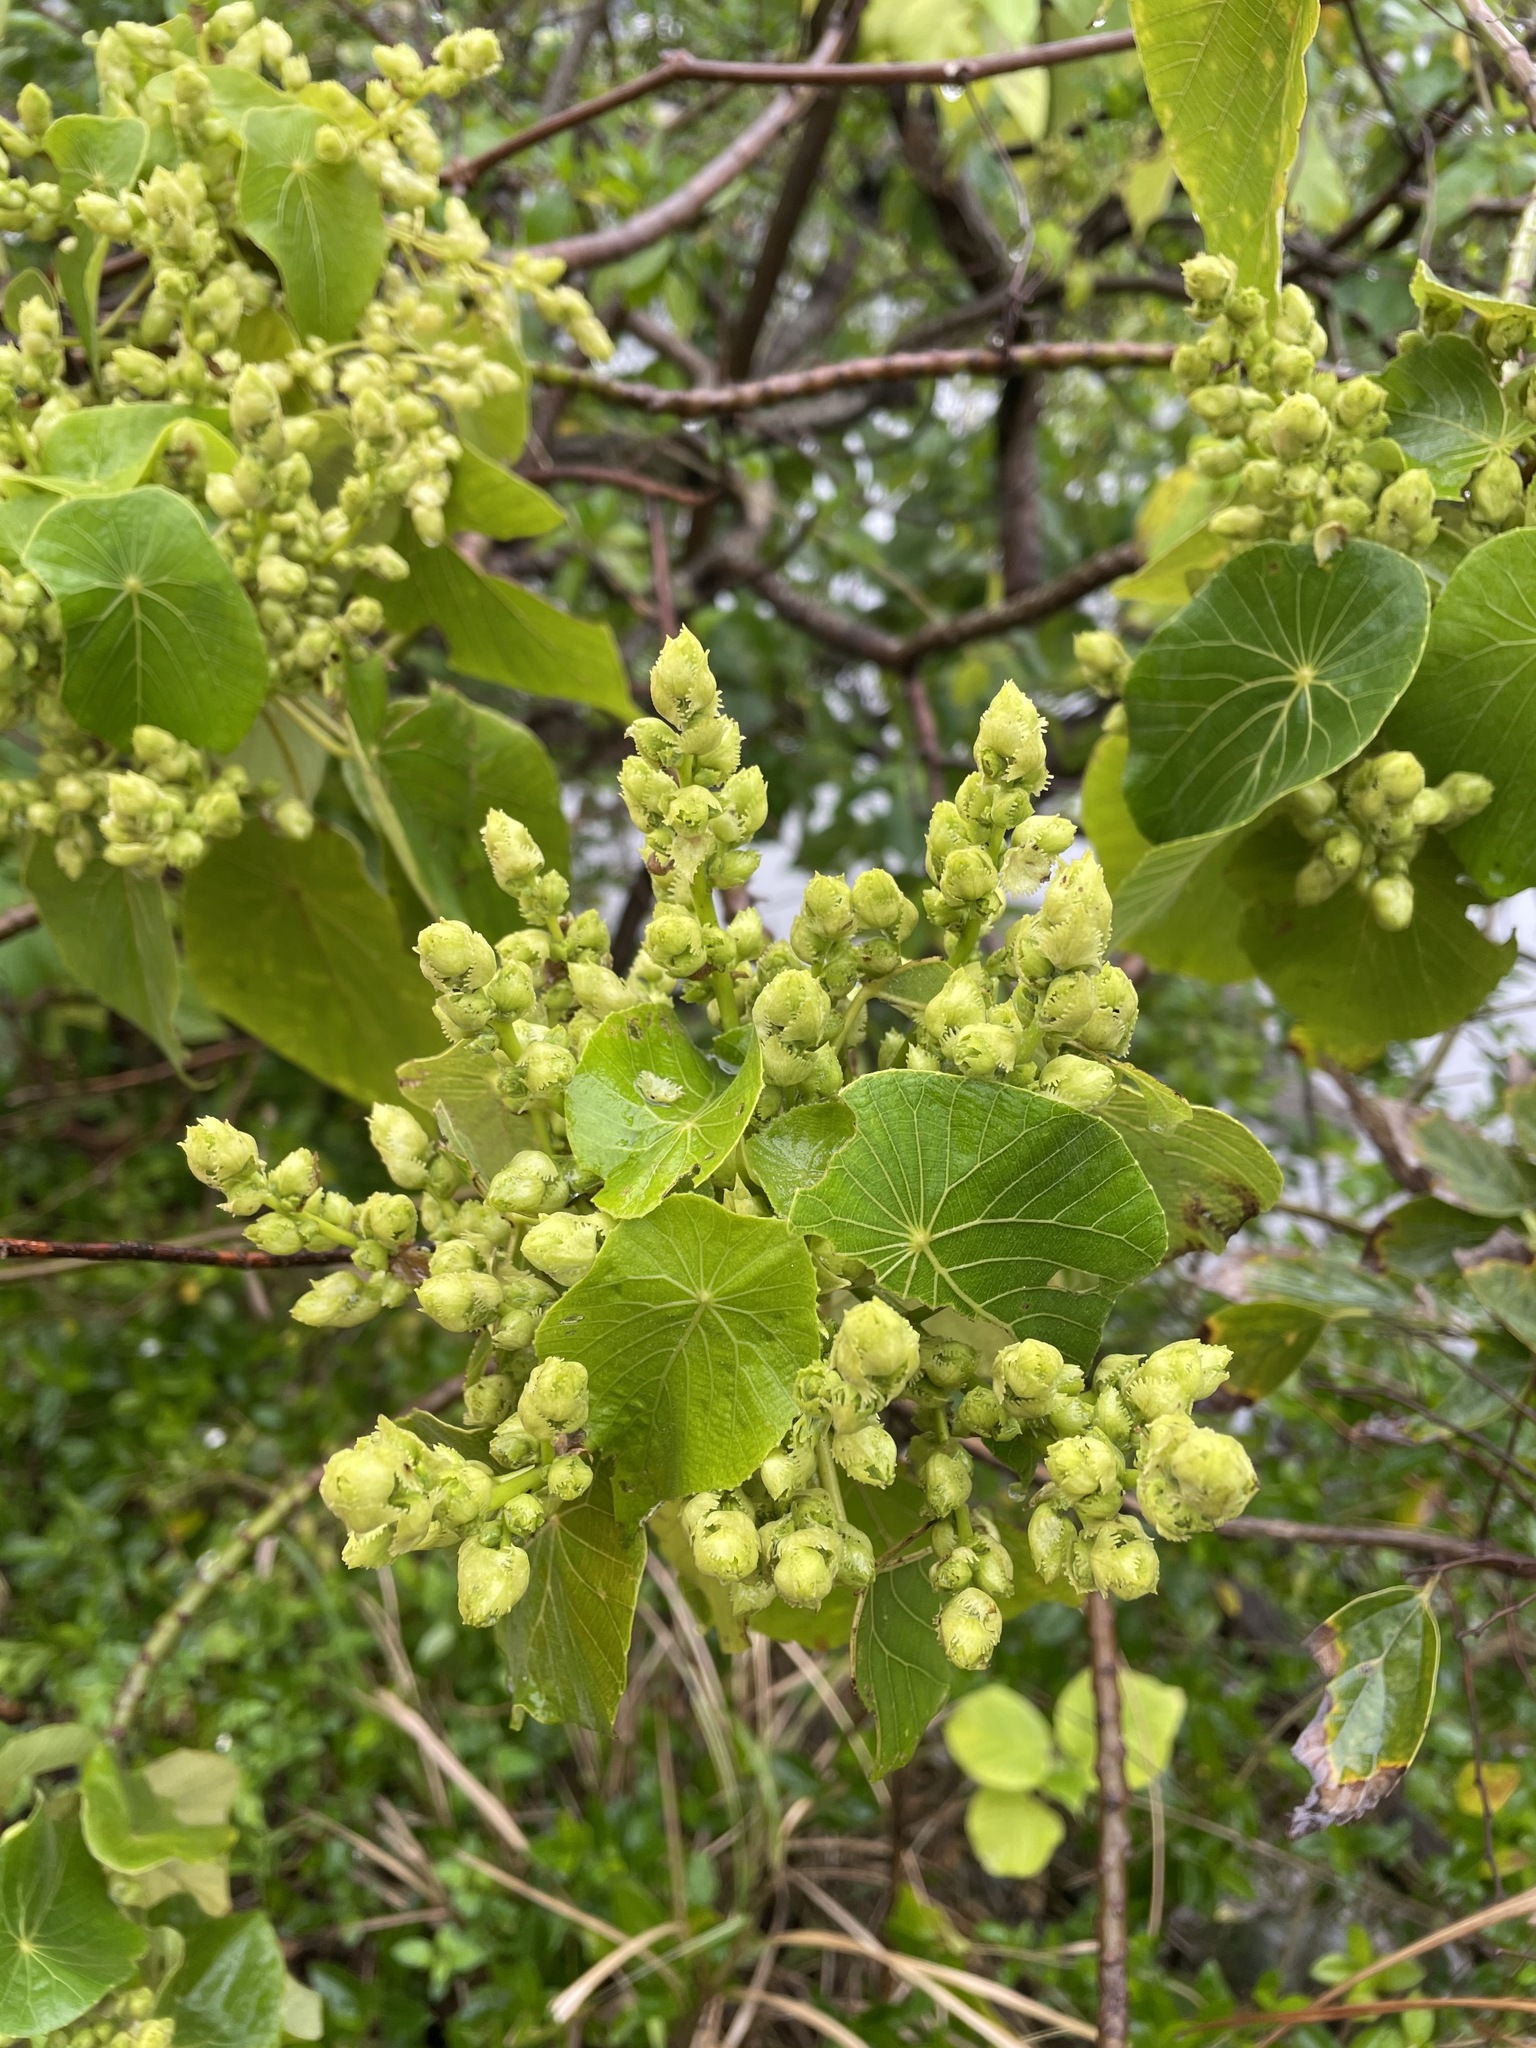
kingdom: Plantae
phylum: Tracheophyta
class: Magnoliopsida
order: Malpighiales
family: Euphorbiaceae
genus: Macaranga
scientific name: Macaranga tanarius
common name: Parasol leaf tree
